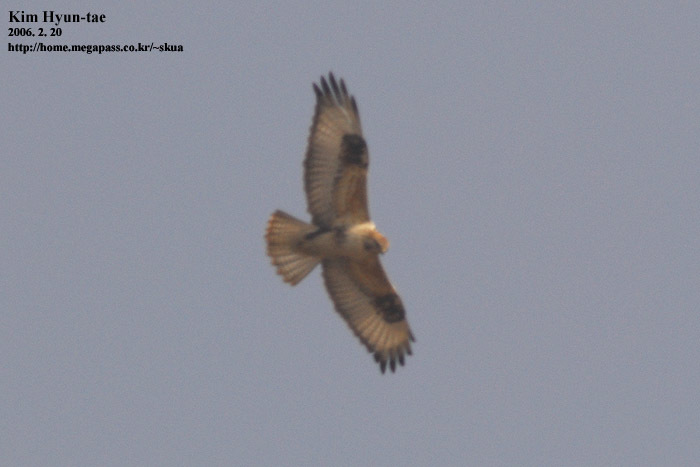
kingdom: Animalia
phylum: Chordata
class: Aves
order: Accipitriformes
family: Accipitridae
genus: Buteo
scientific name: Buteo hemilasius
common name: Upland buzzard
